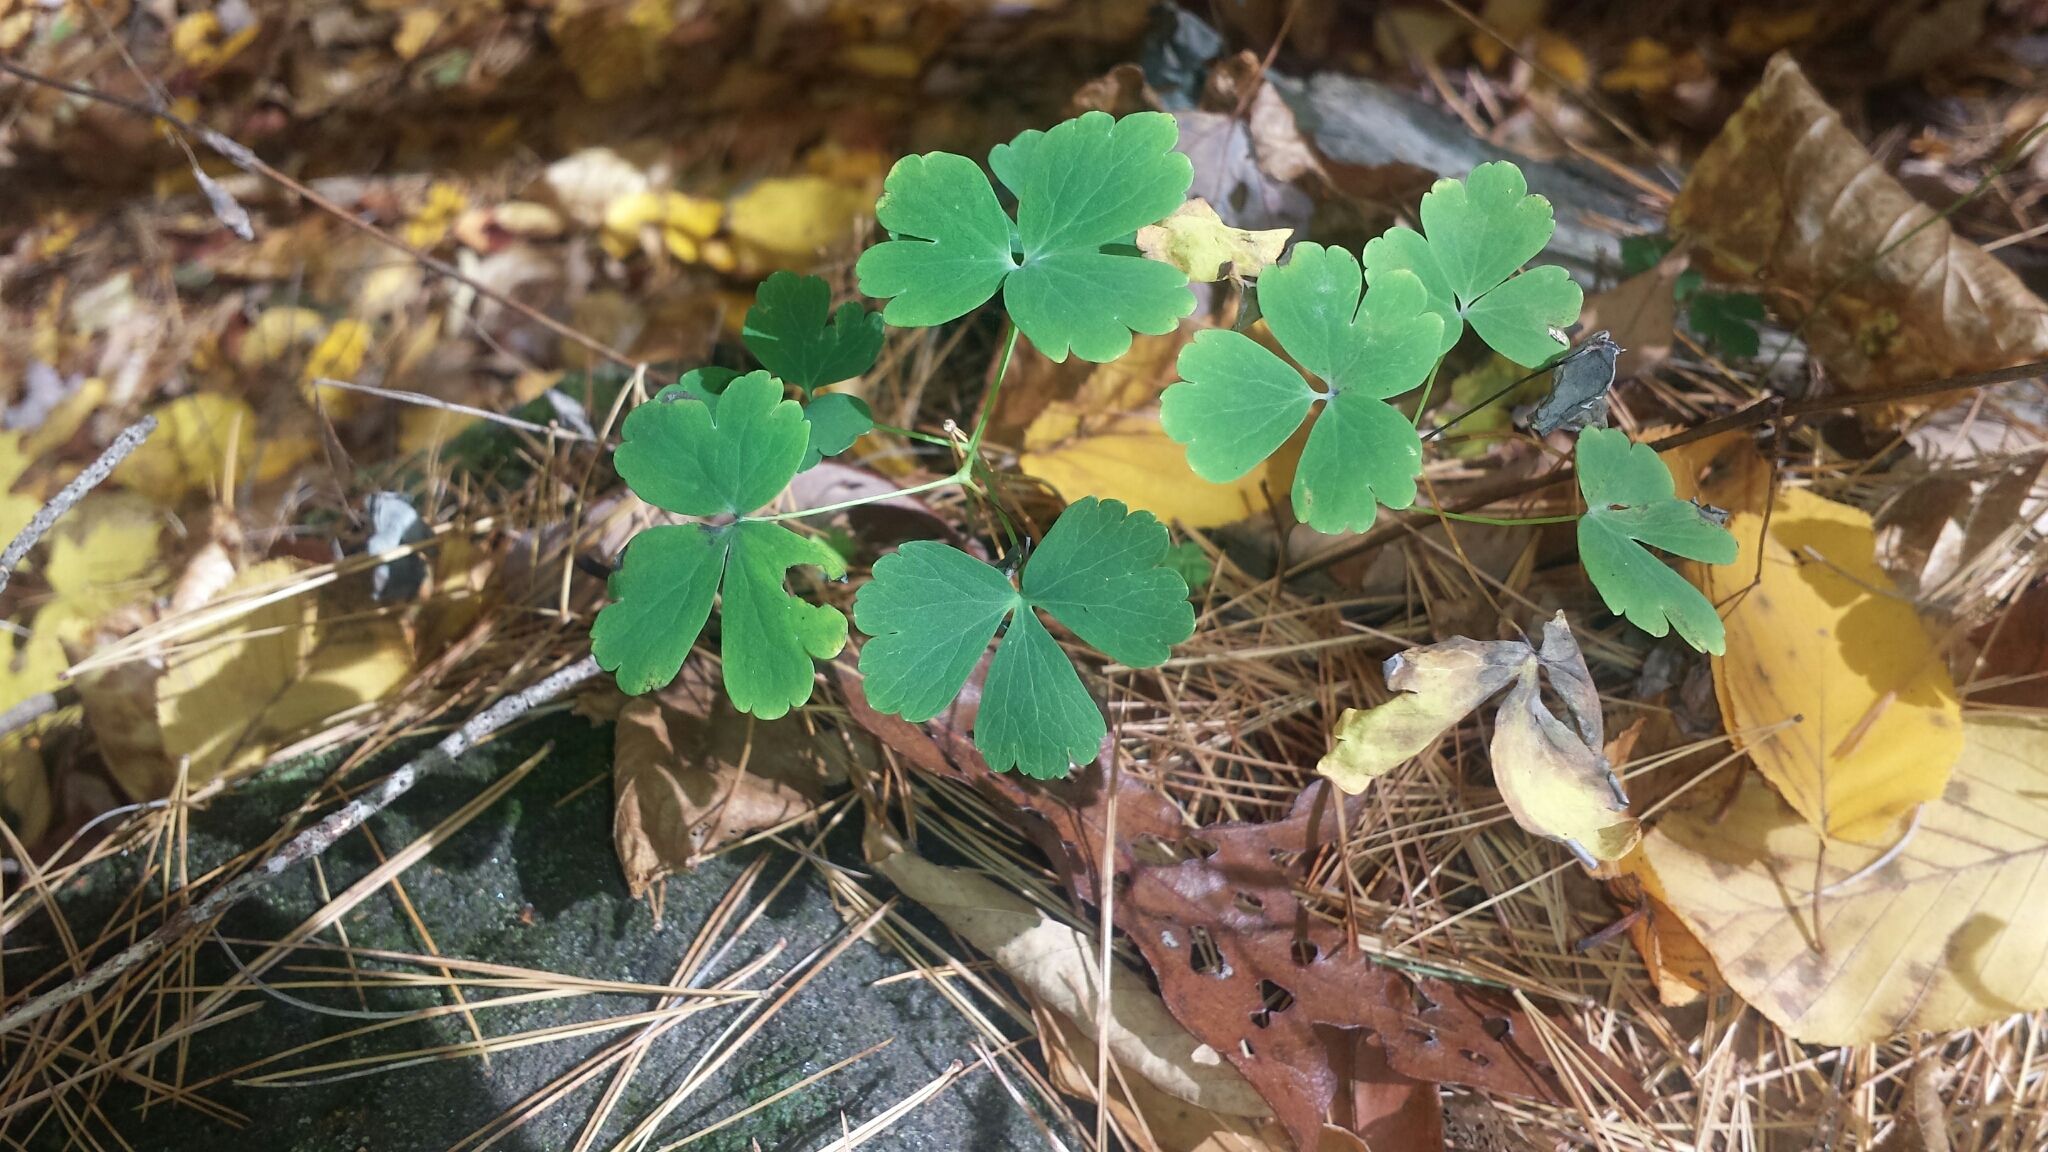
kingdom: Plantae
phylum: Tracheophyta
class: Magnoliopsida
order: Ranunculales
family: Ranunculaceae
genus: Aquilegia
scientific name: Aquilegia canadensis
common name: American columbine
